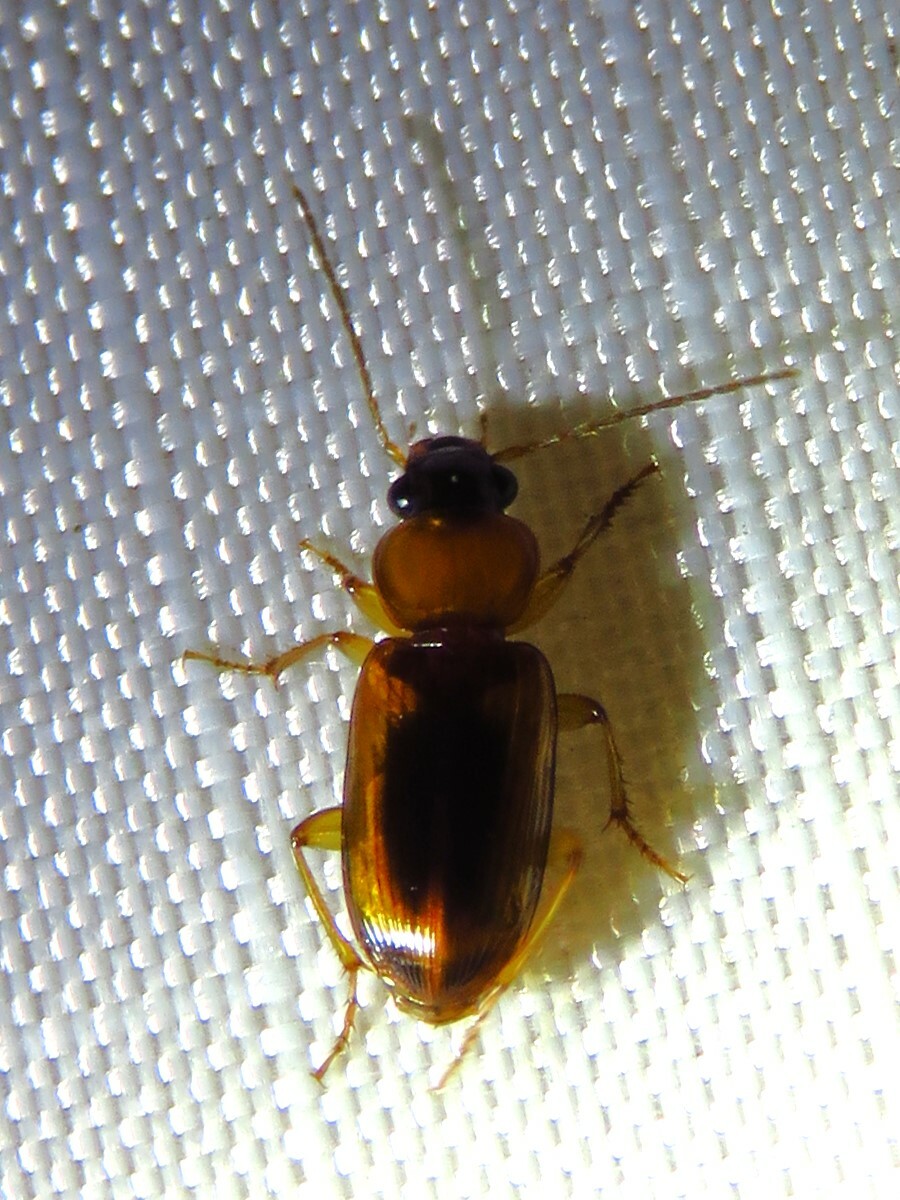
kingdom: Animalia
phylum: Arthropoda
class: Insecta
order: Coleoptera
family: Carabidae
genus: Stenolophus
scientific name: Stenolophus dissimilis
